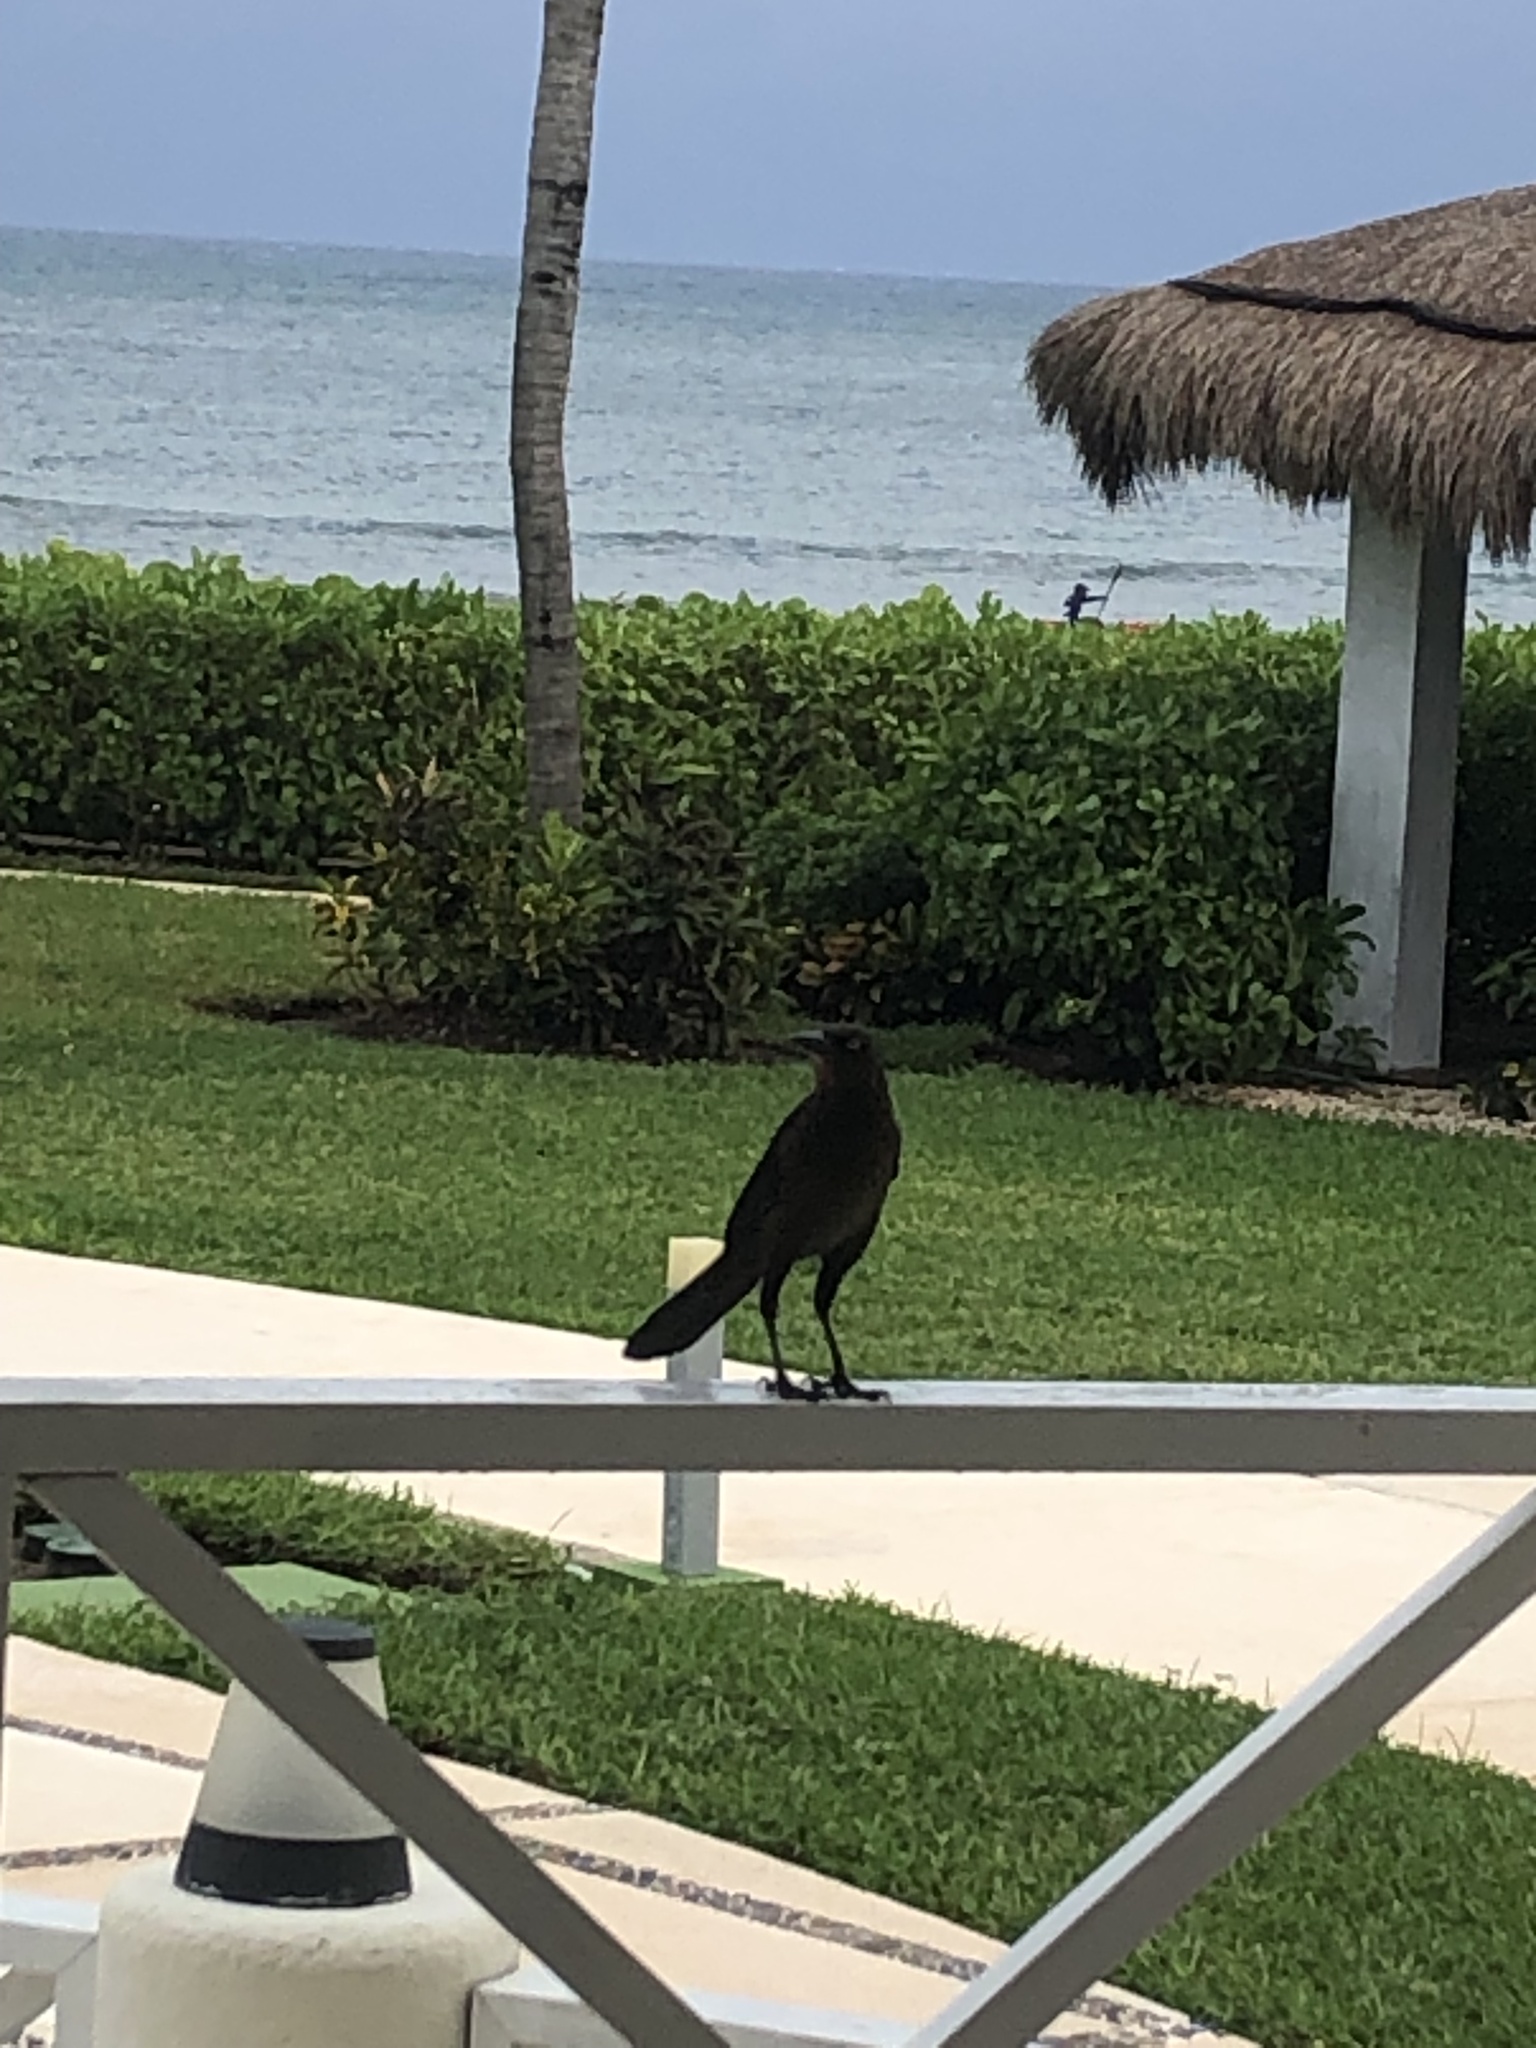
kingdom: Animalia
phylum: Chordata
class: Aves
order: Passeriformes
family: Icteridae
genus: Quiscalus
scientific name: Quiscalus mexicanus
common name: Great-tailed grackle
